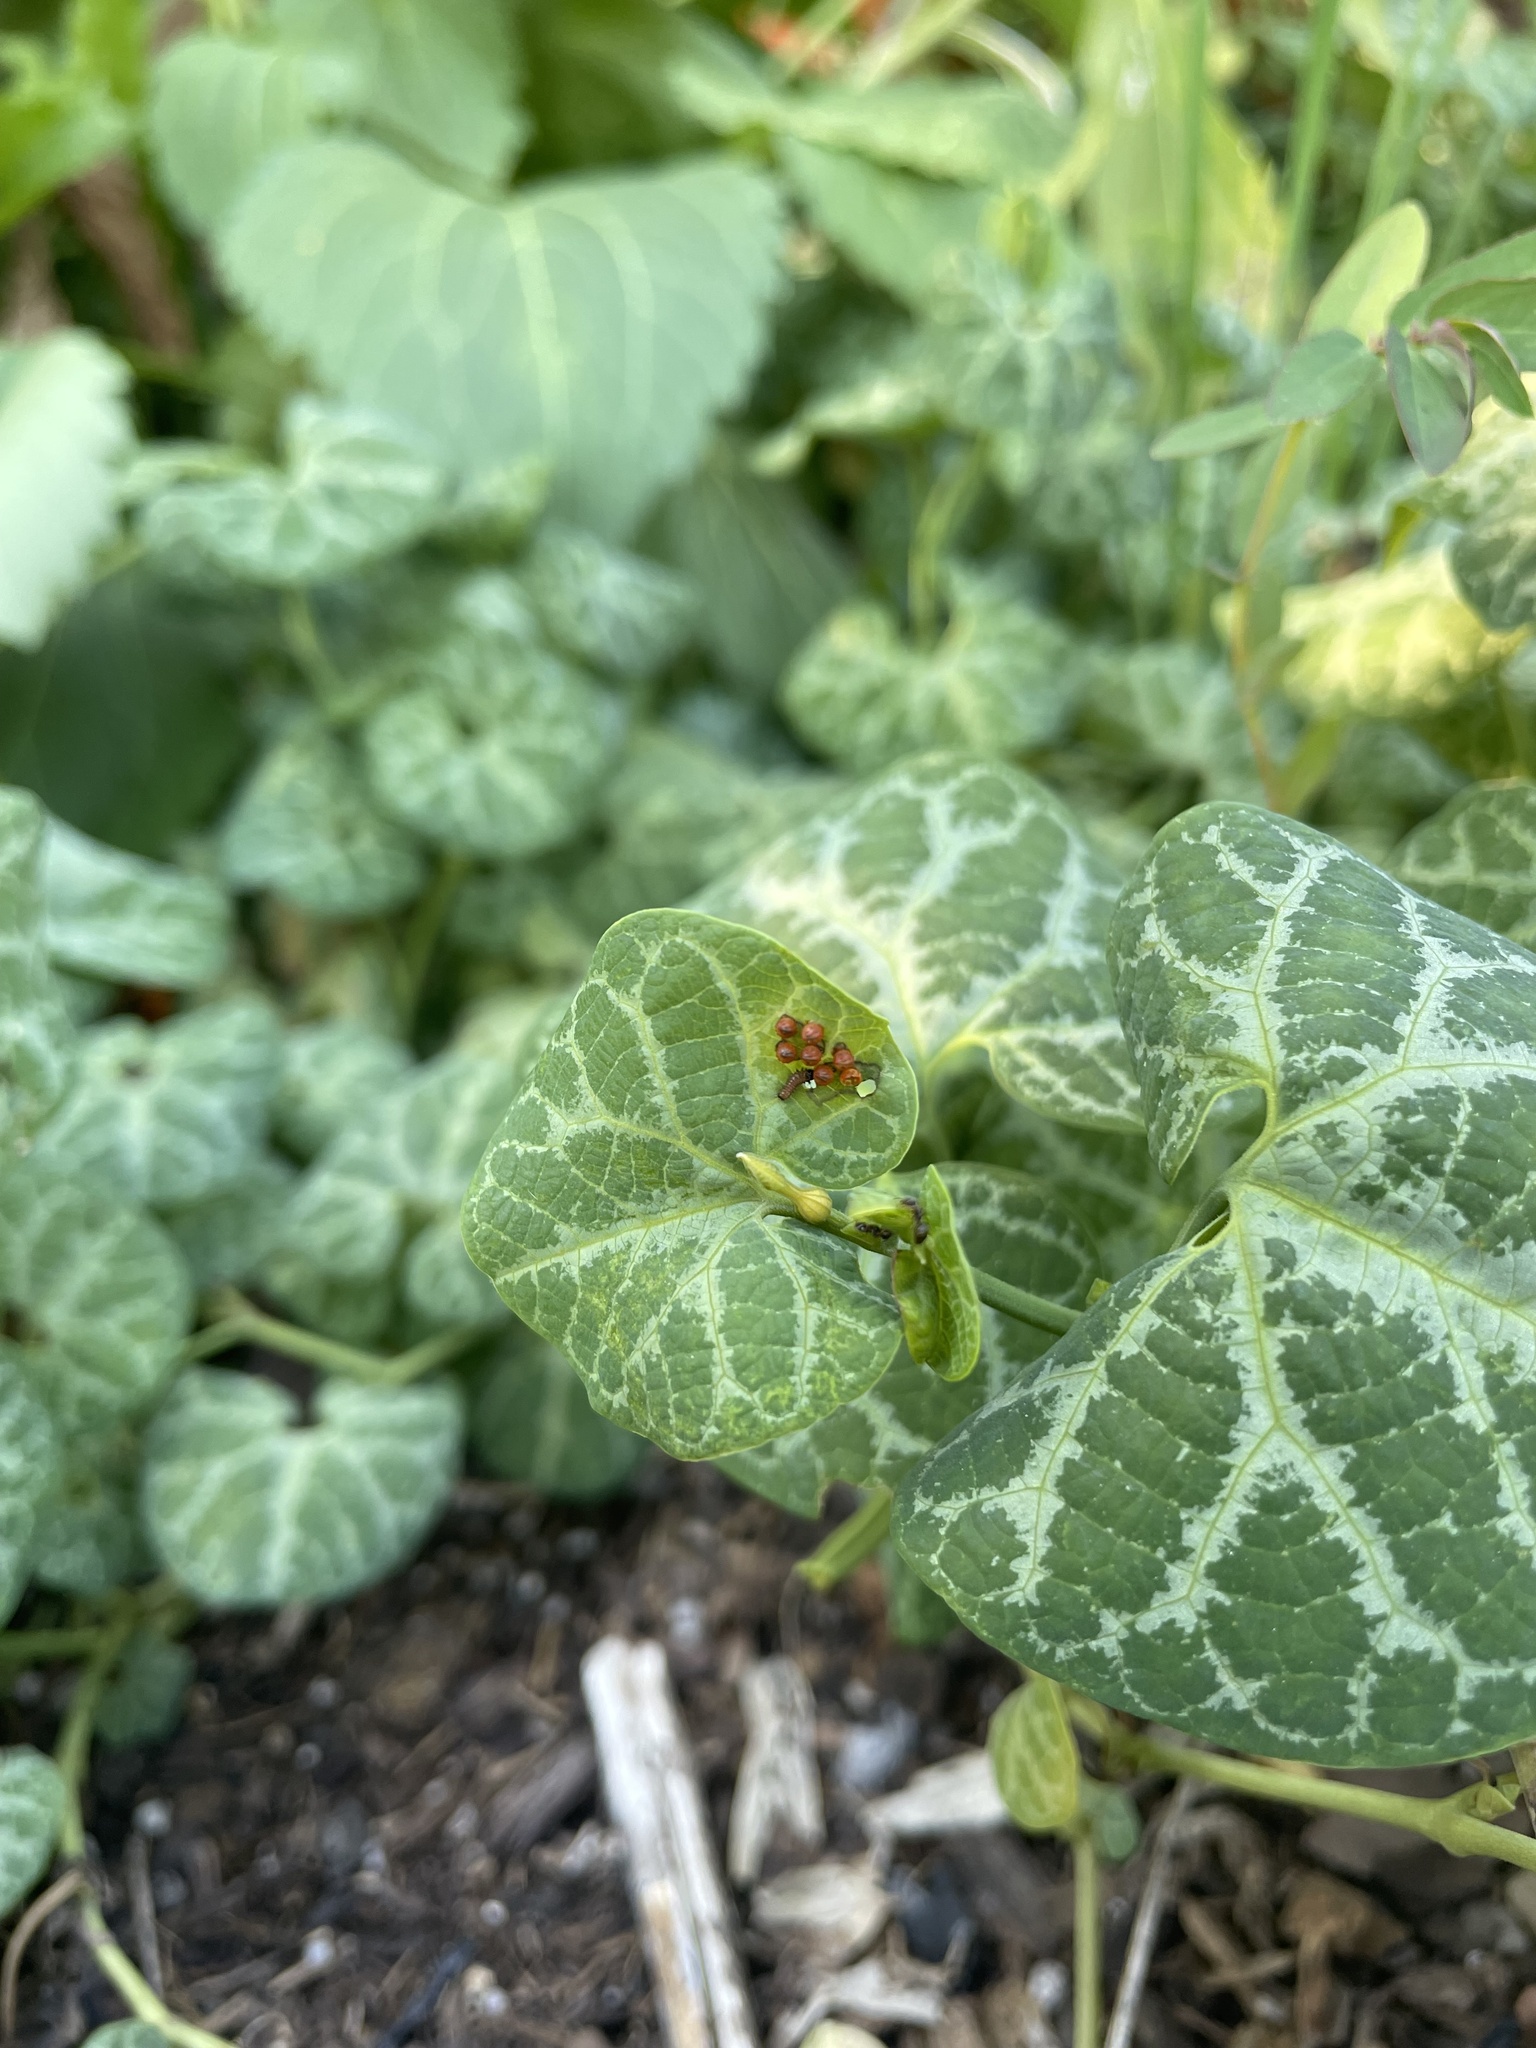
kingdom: Animalia
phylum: Arthropoda
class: Insecta
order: Lepidoptera
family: Papilionidae
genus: Battus
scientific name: Battus philenor
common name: Pipevine swallowtail
